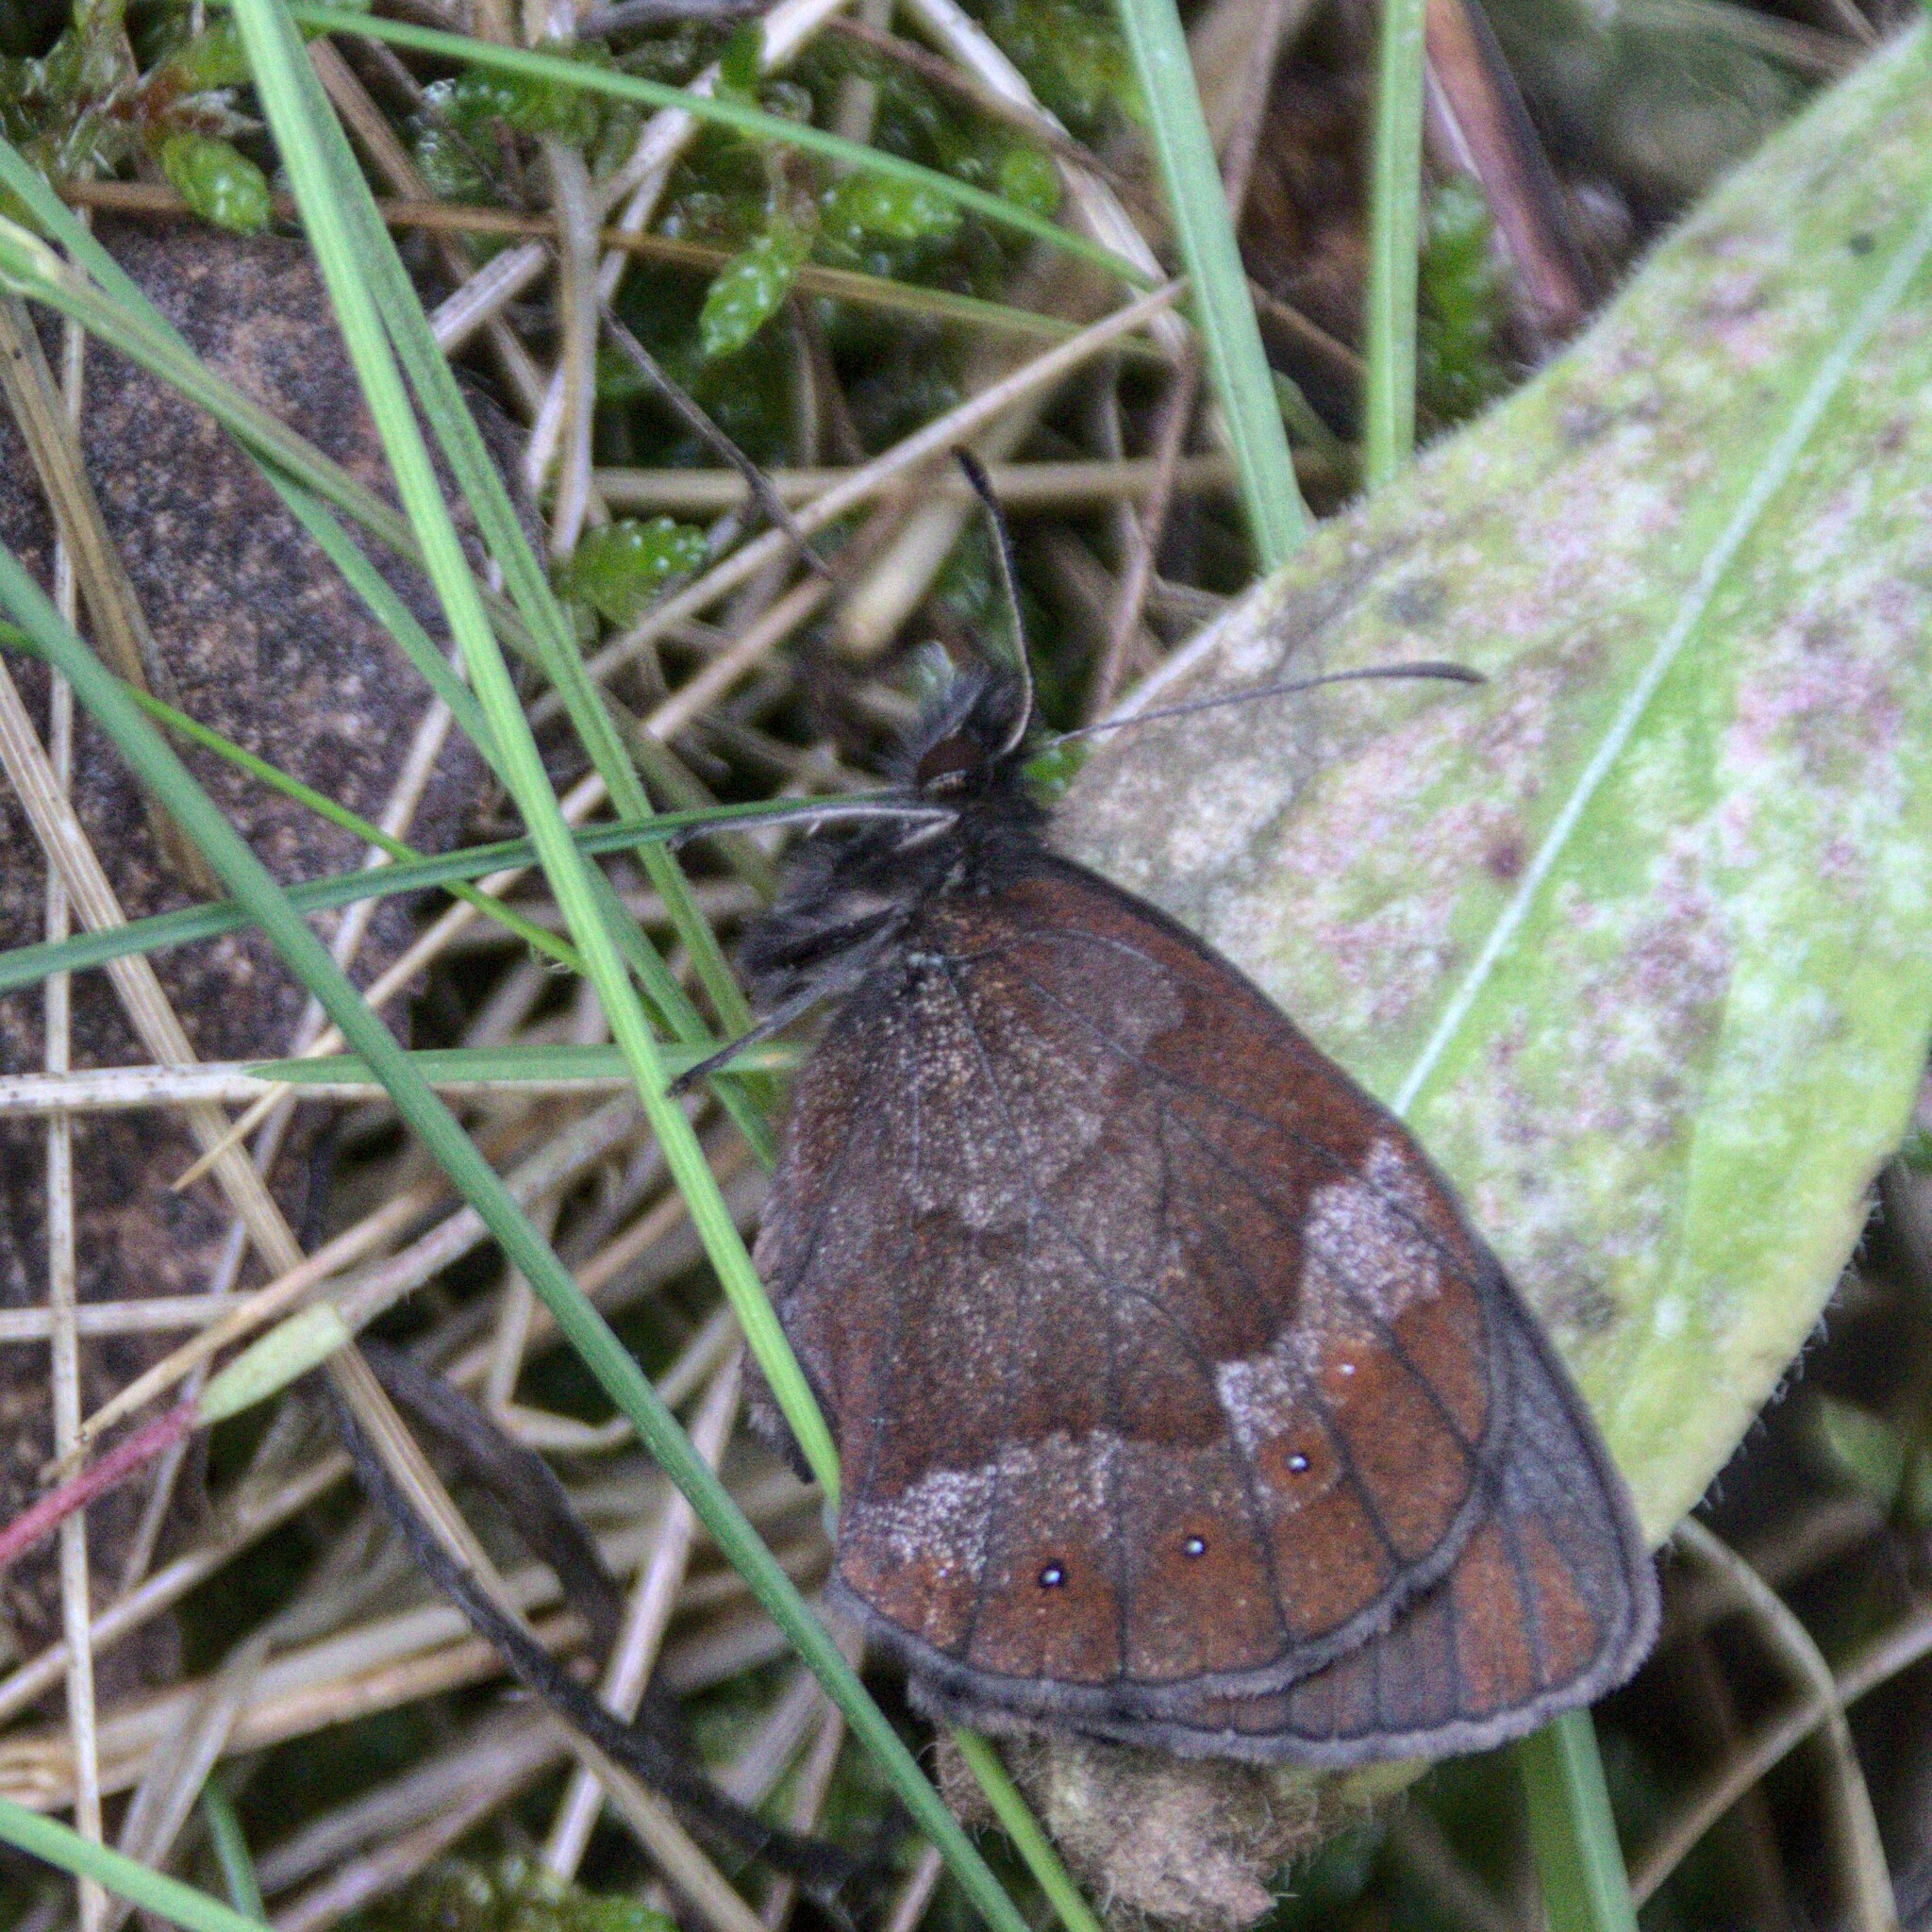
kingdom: Animalia
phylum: Arthropoda
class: Insecta
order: Lepidoptera
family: Nymphalidae
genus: Erebia
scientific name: Erebia aethiops
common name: Scotch argus
